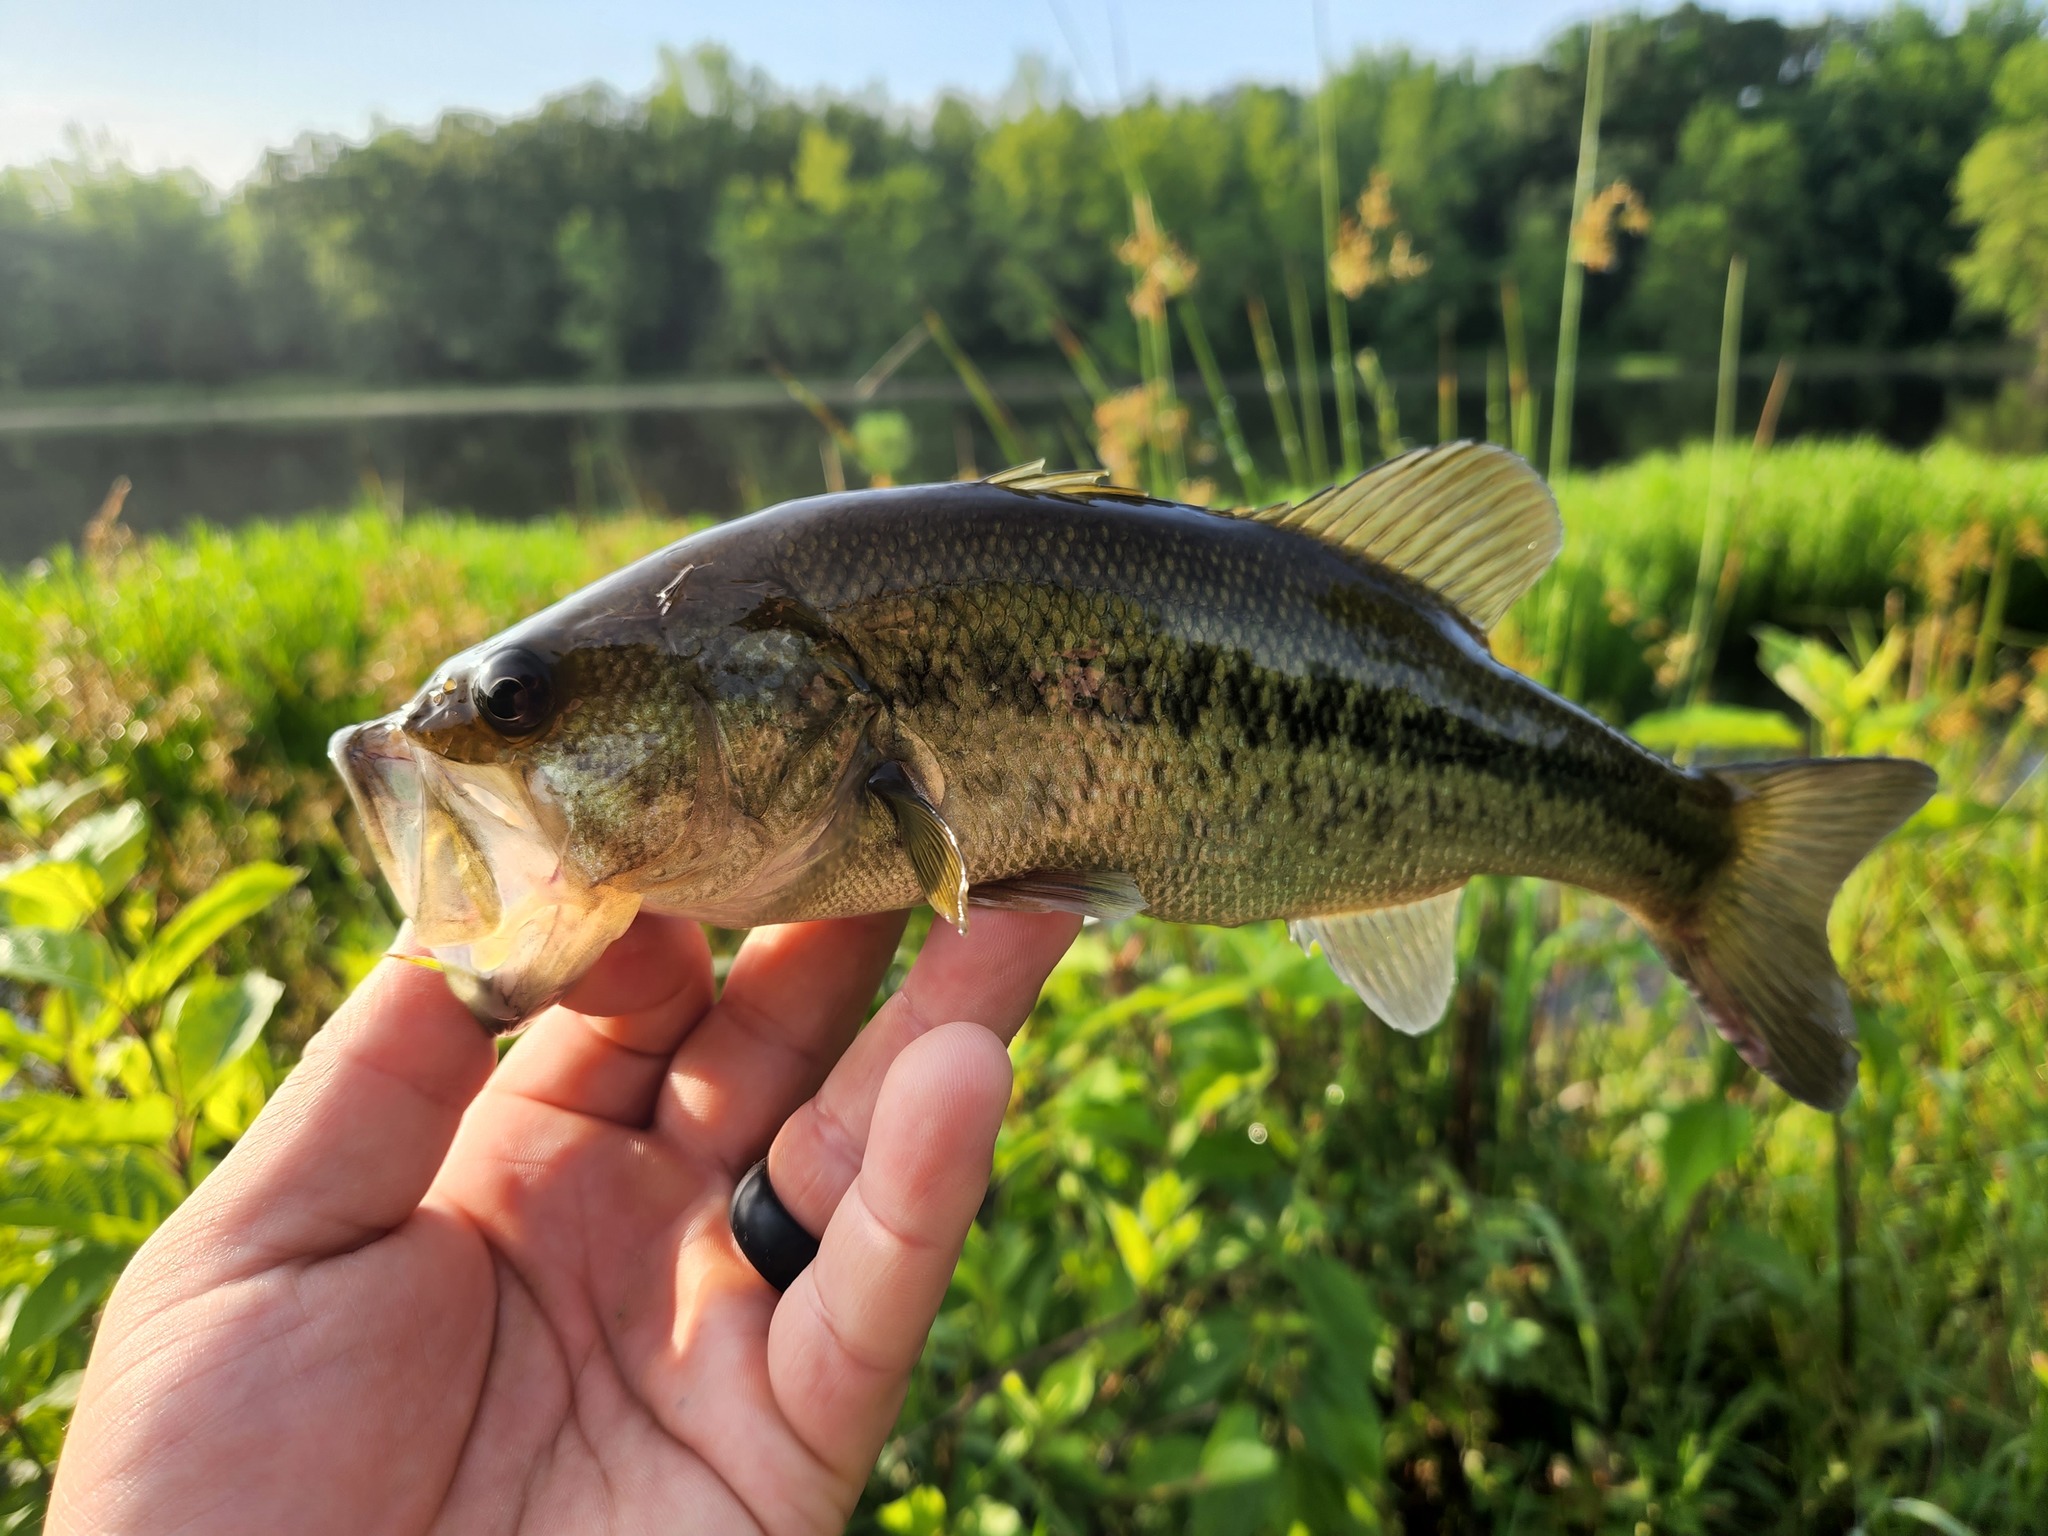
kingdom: Animalia
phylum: Chordata
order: Perciformes
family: Centrarchidae
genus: Micropterus
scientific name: Micropterus
